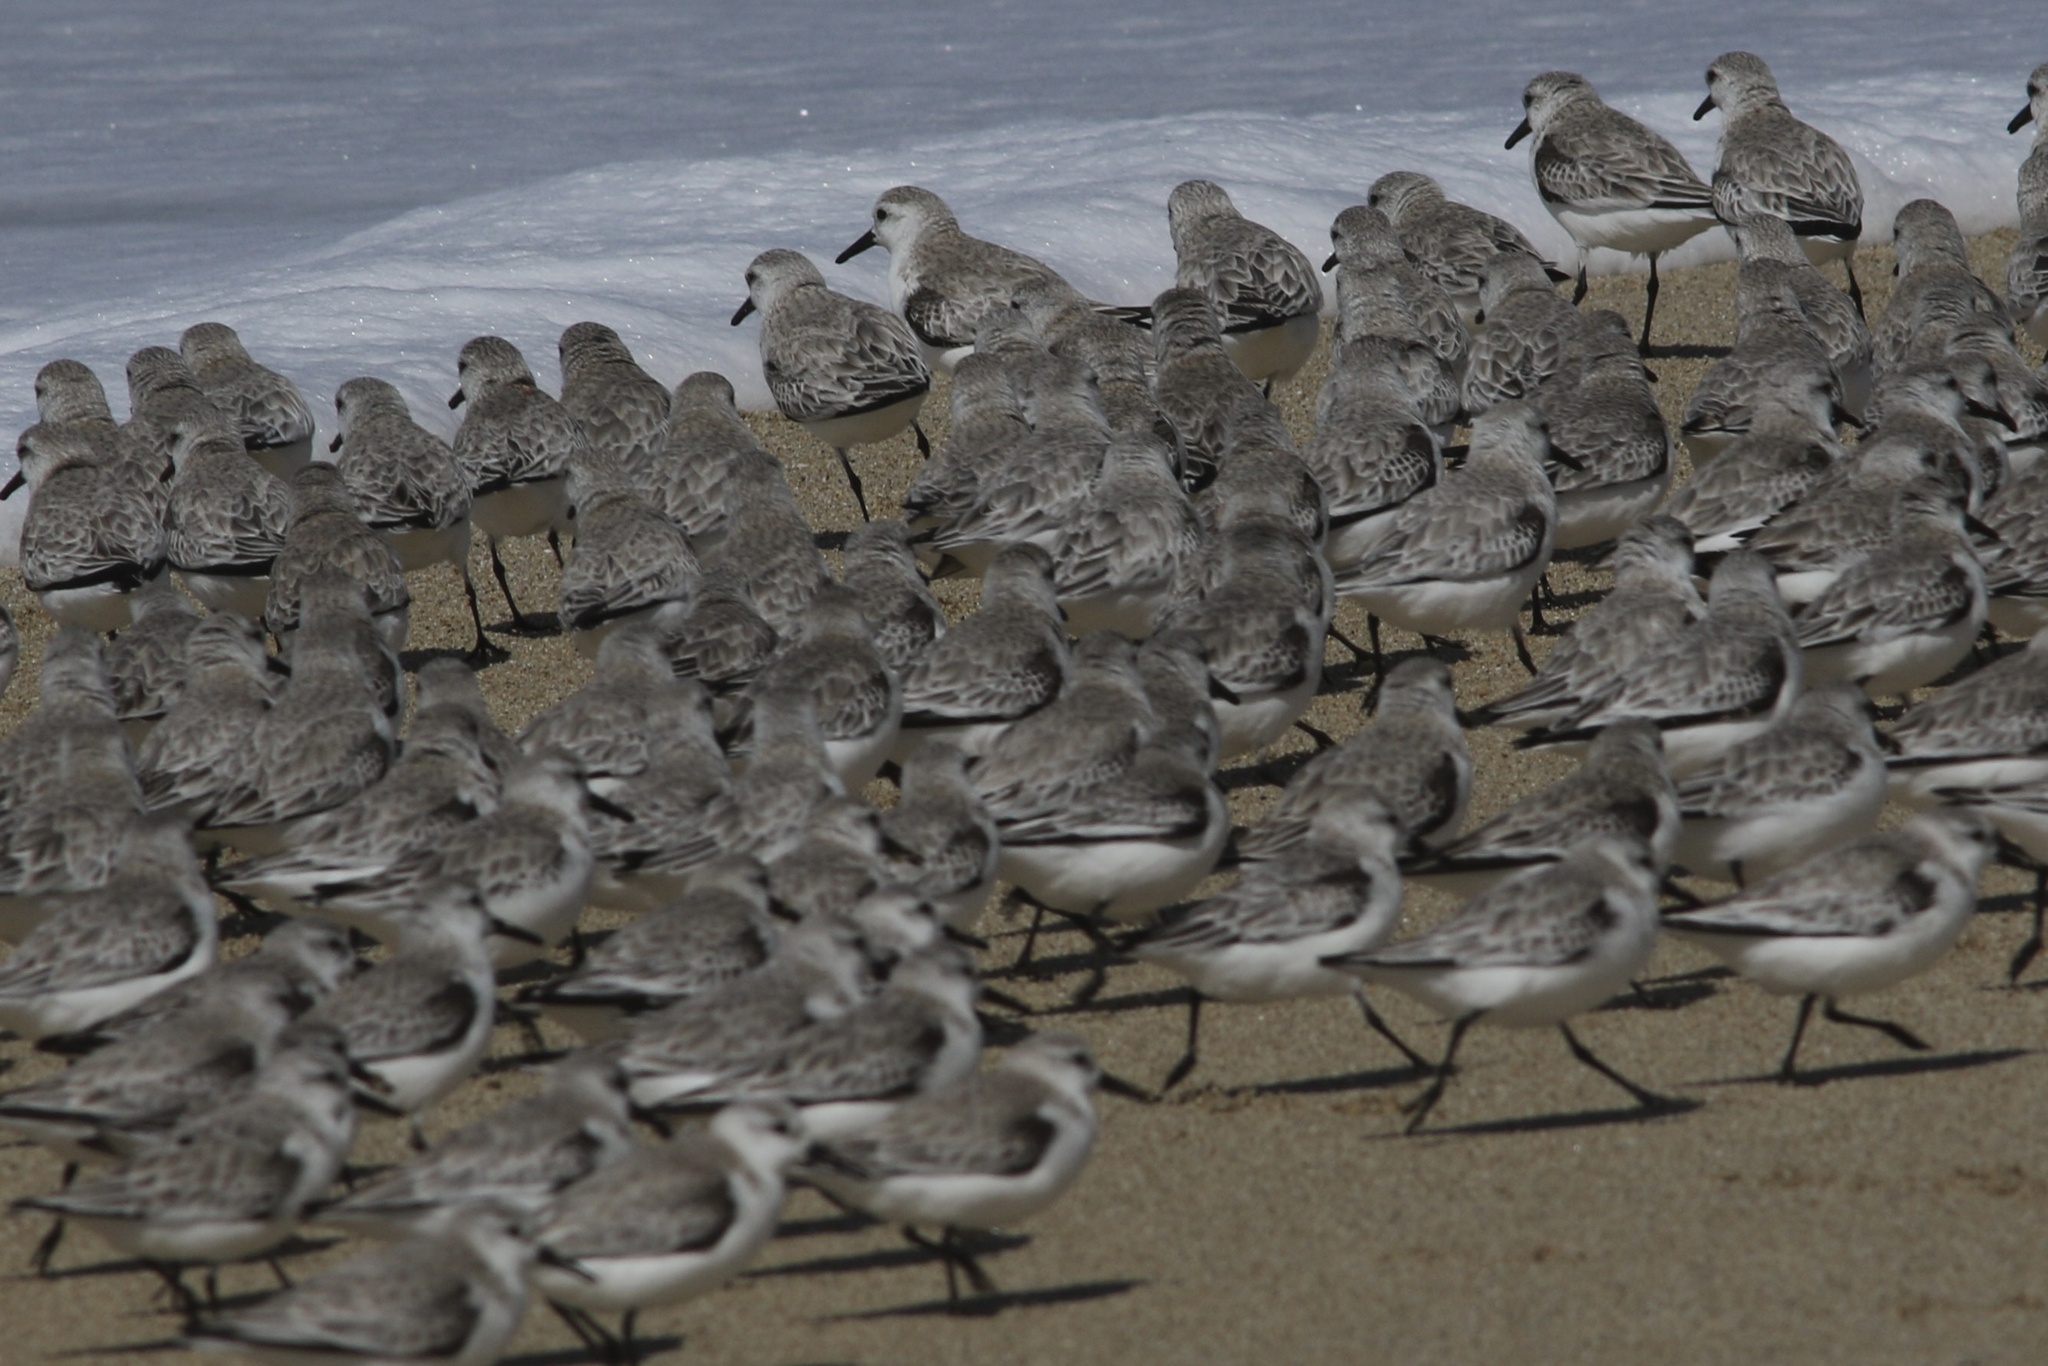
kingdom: Animalia
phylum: Chordata
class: Aves
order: Charadriiformes
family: Scolopacidae
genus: Calidris
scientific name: Calidris alba
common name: Sanderling
